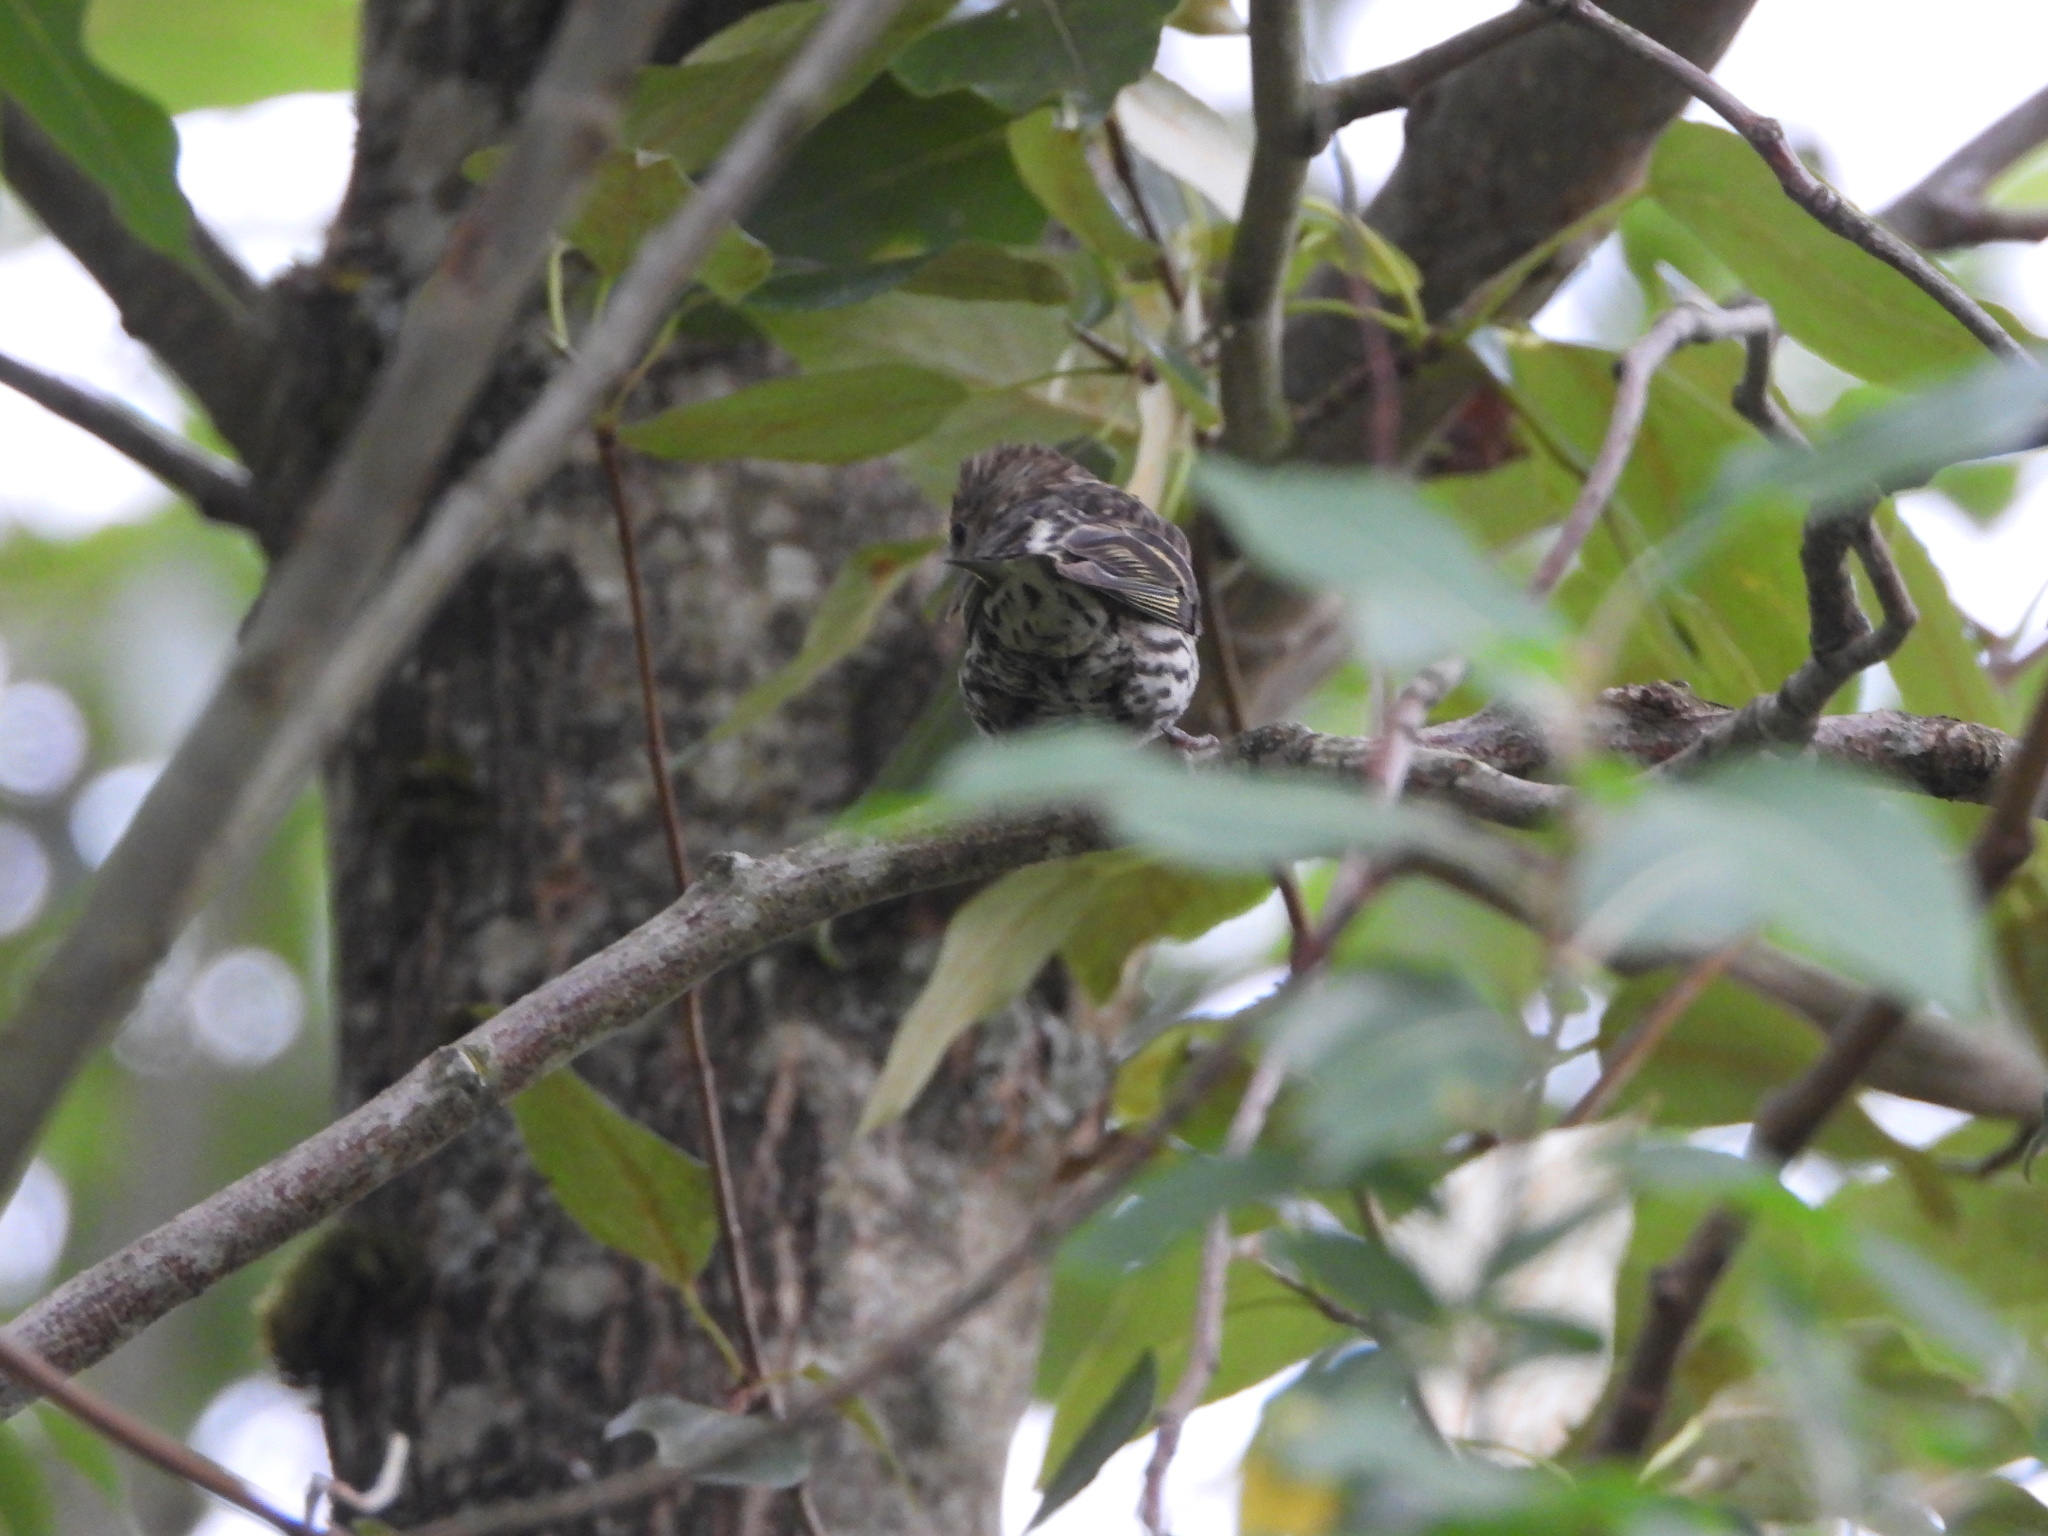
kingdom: Animalia
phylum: Chordata
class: Aves
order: Passeriformes
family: Fringillidae
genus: Spinus
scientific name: Spinus pinus
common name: Pine siskin
